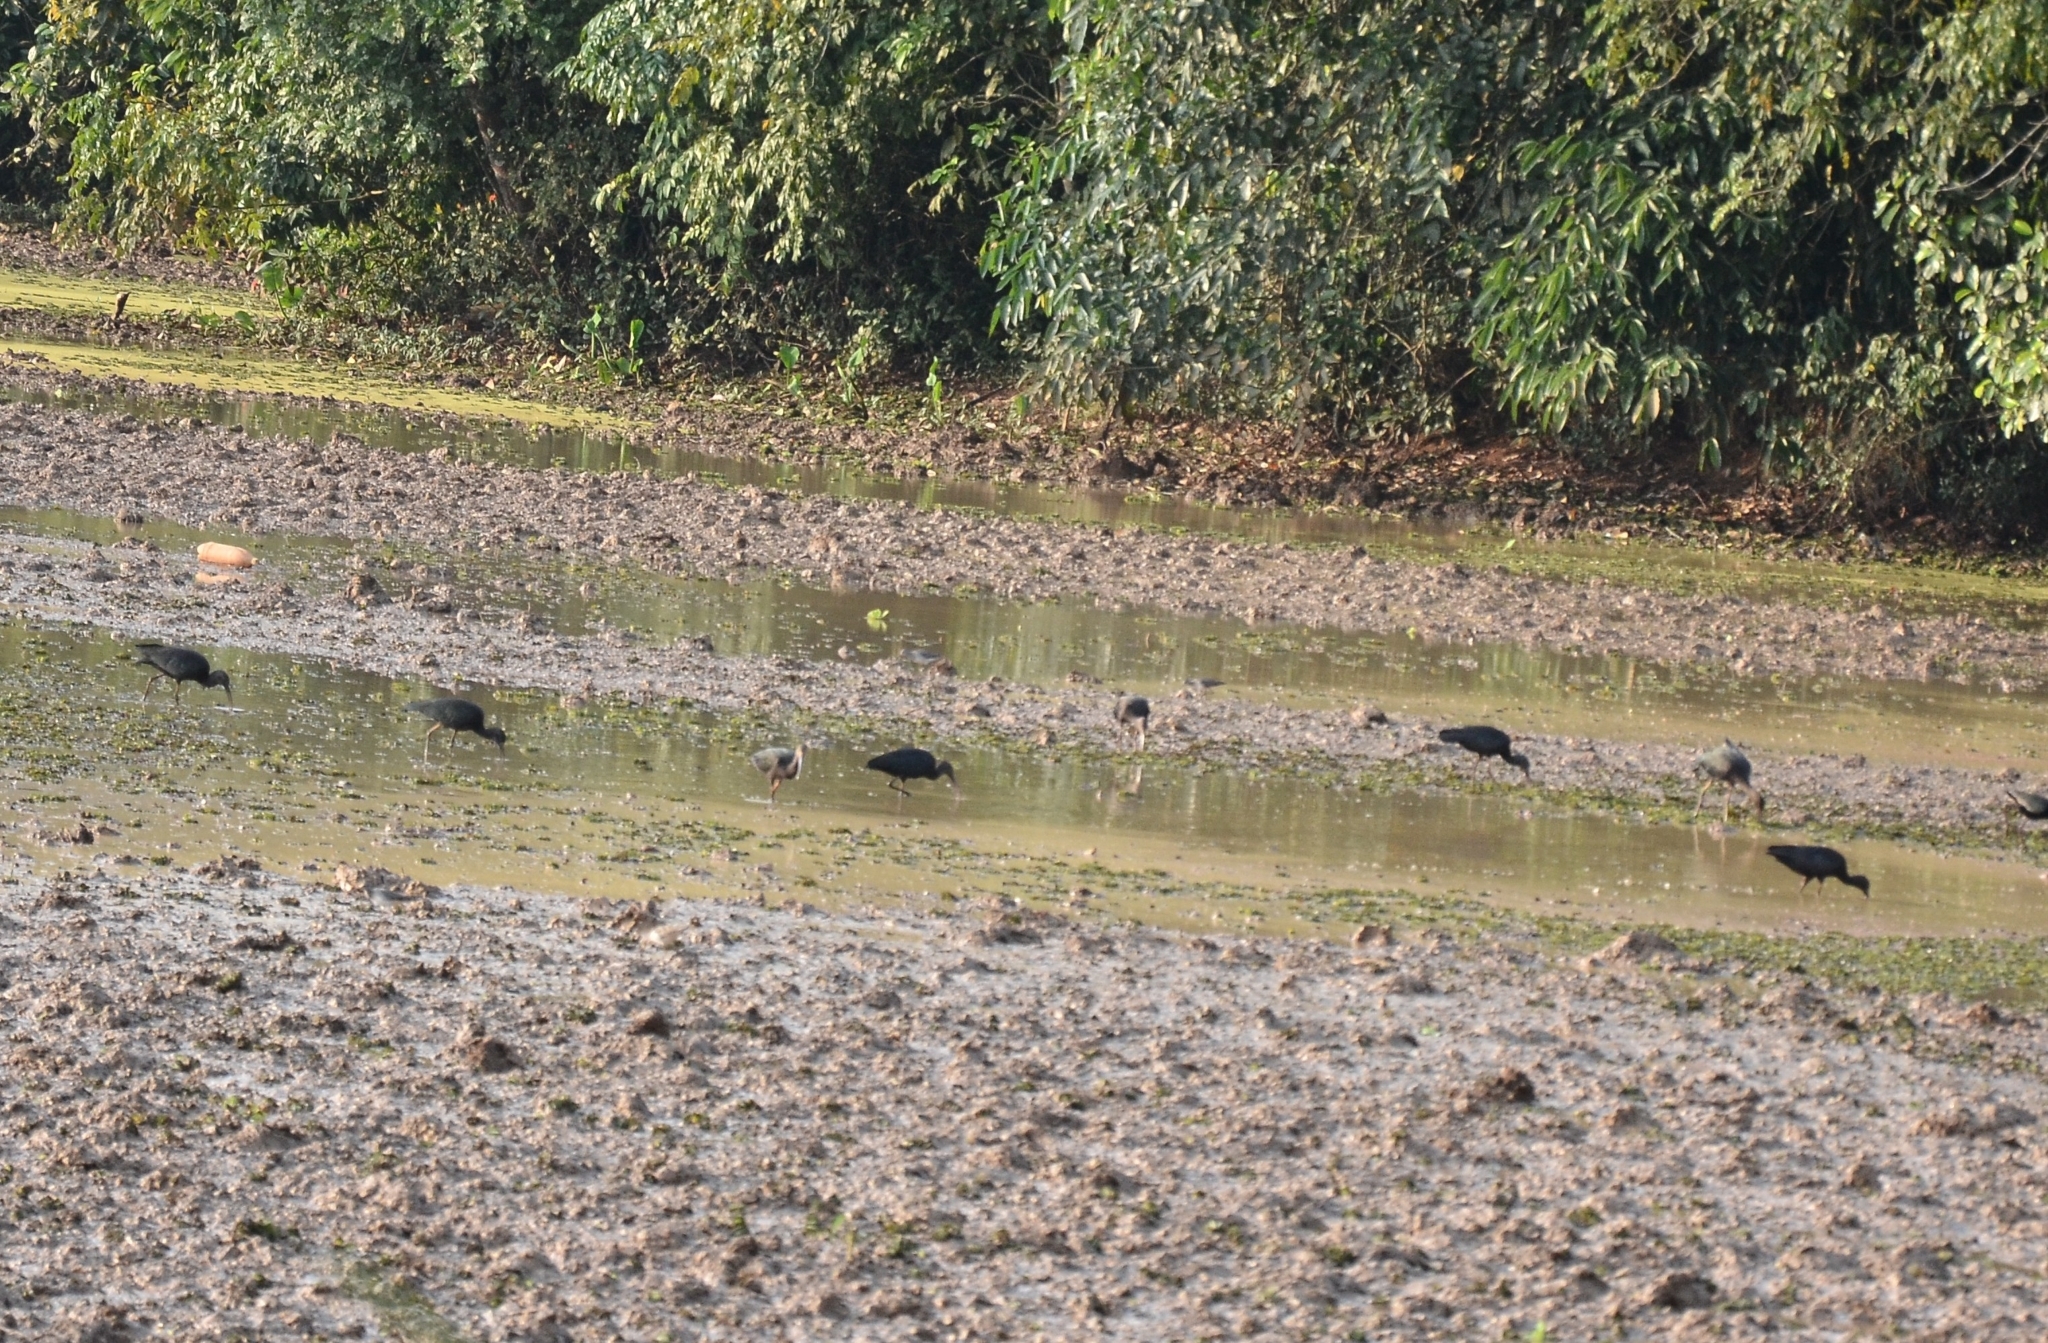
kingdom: Animalia
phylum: Chordata
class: Aves
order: Pelecaniformes
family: Threskiornithidae
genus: Plegadis
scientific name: Plegadis falcinellus
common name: Glossy ibis
